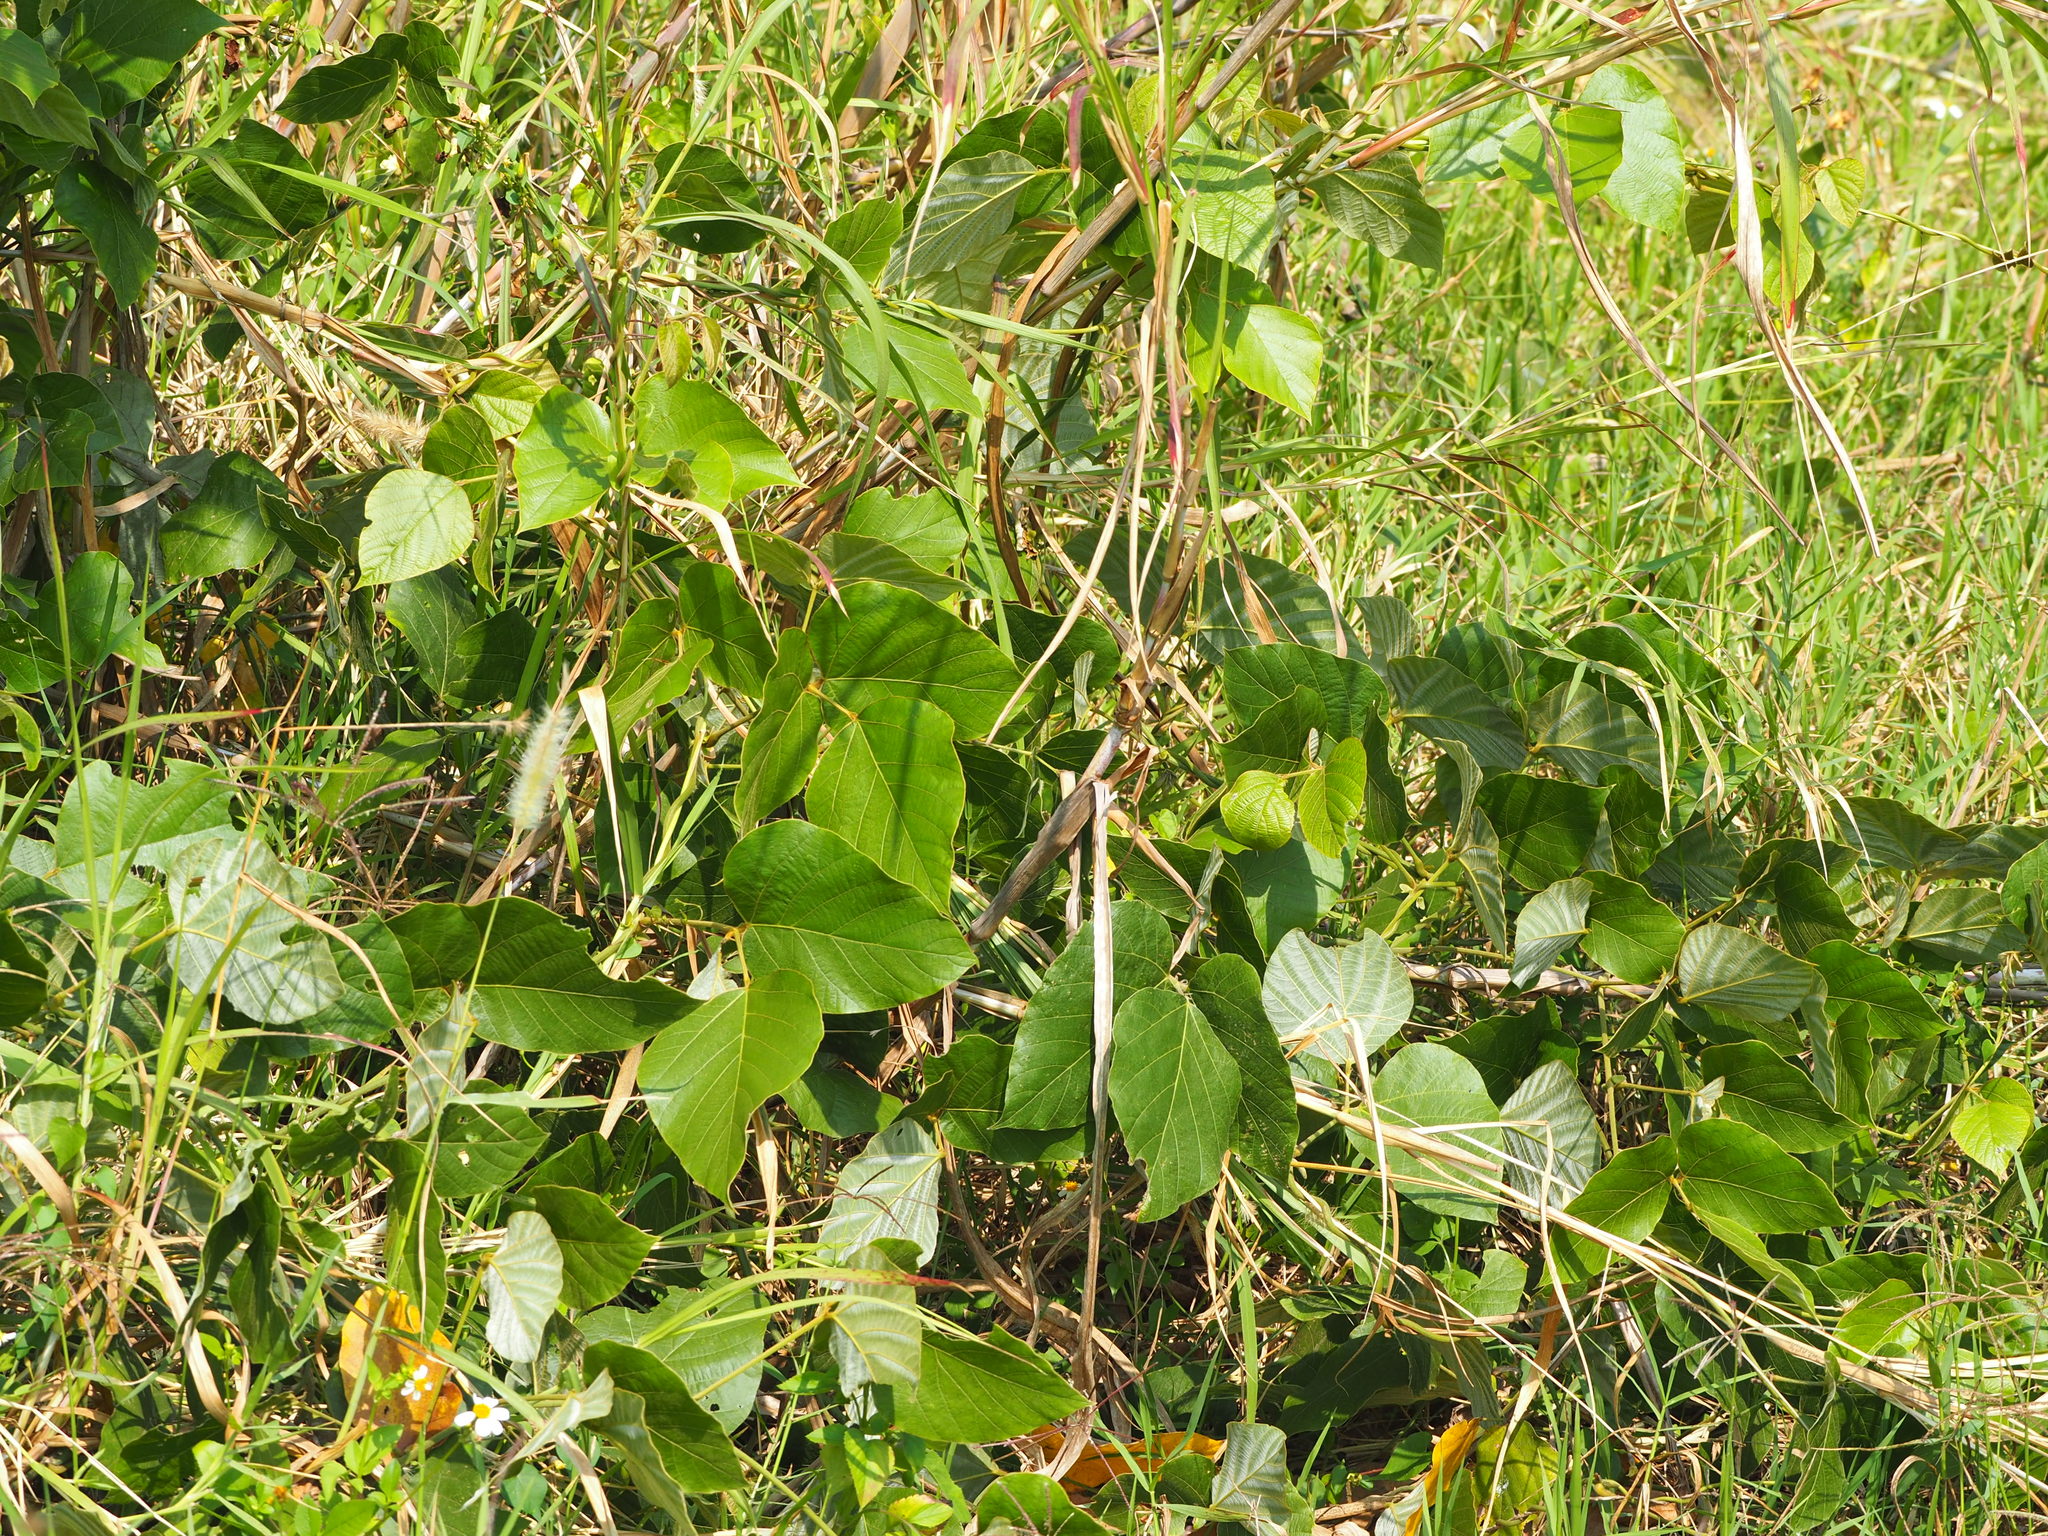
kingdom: Plantae
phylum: Tracheophyta
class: Magnoliopsida
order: Fabales
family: Fabaceae
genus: Pueraria
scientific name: Pueraria montana
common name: Kudzu
